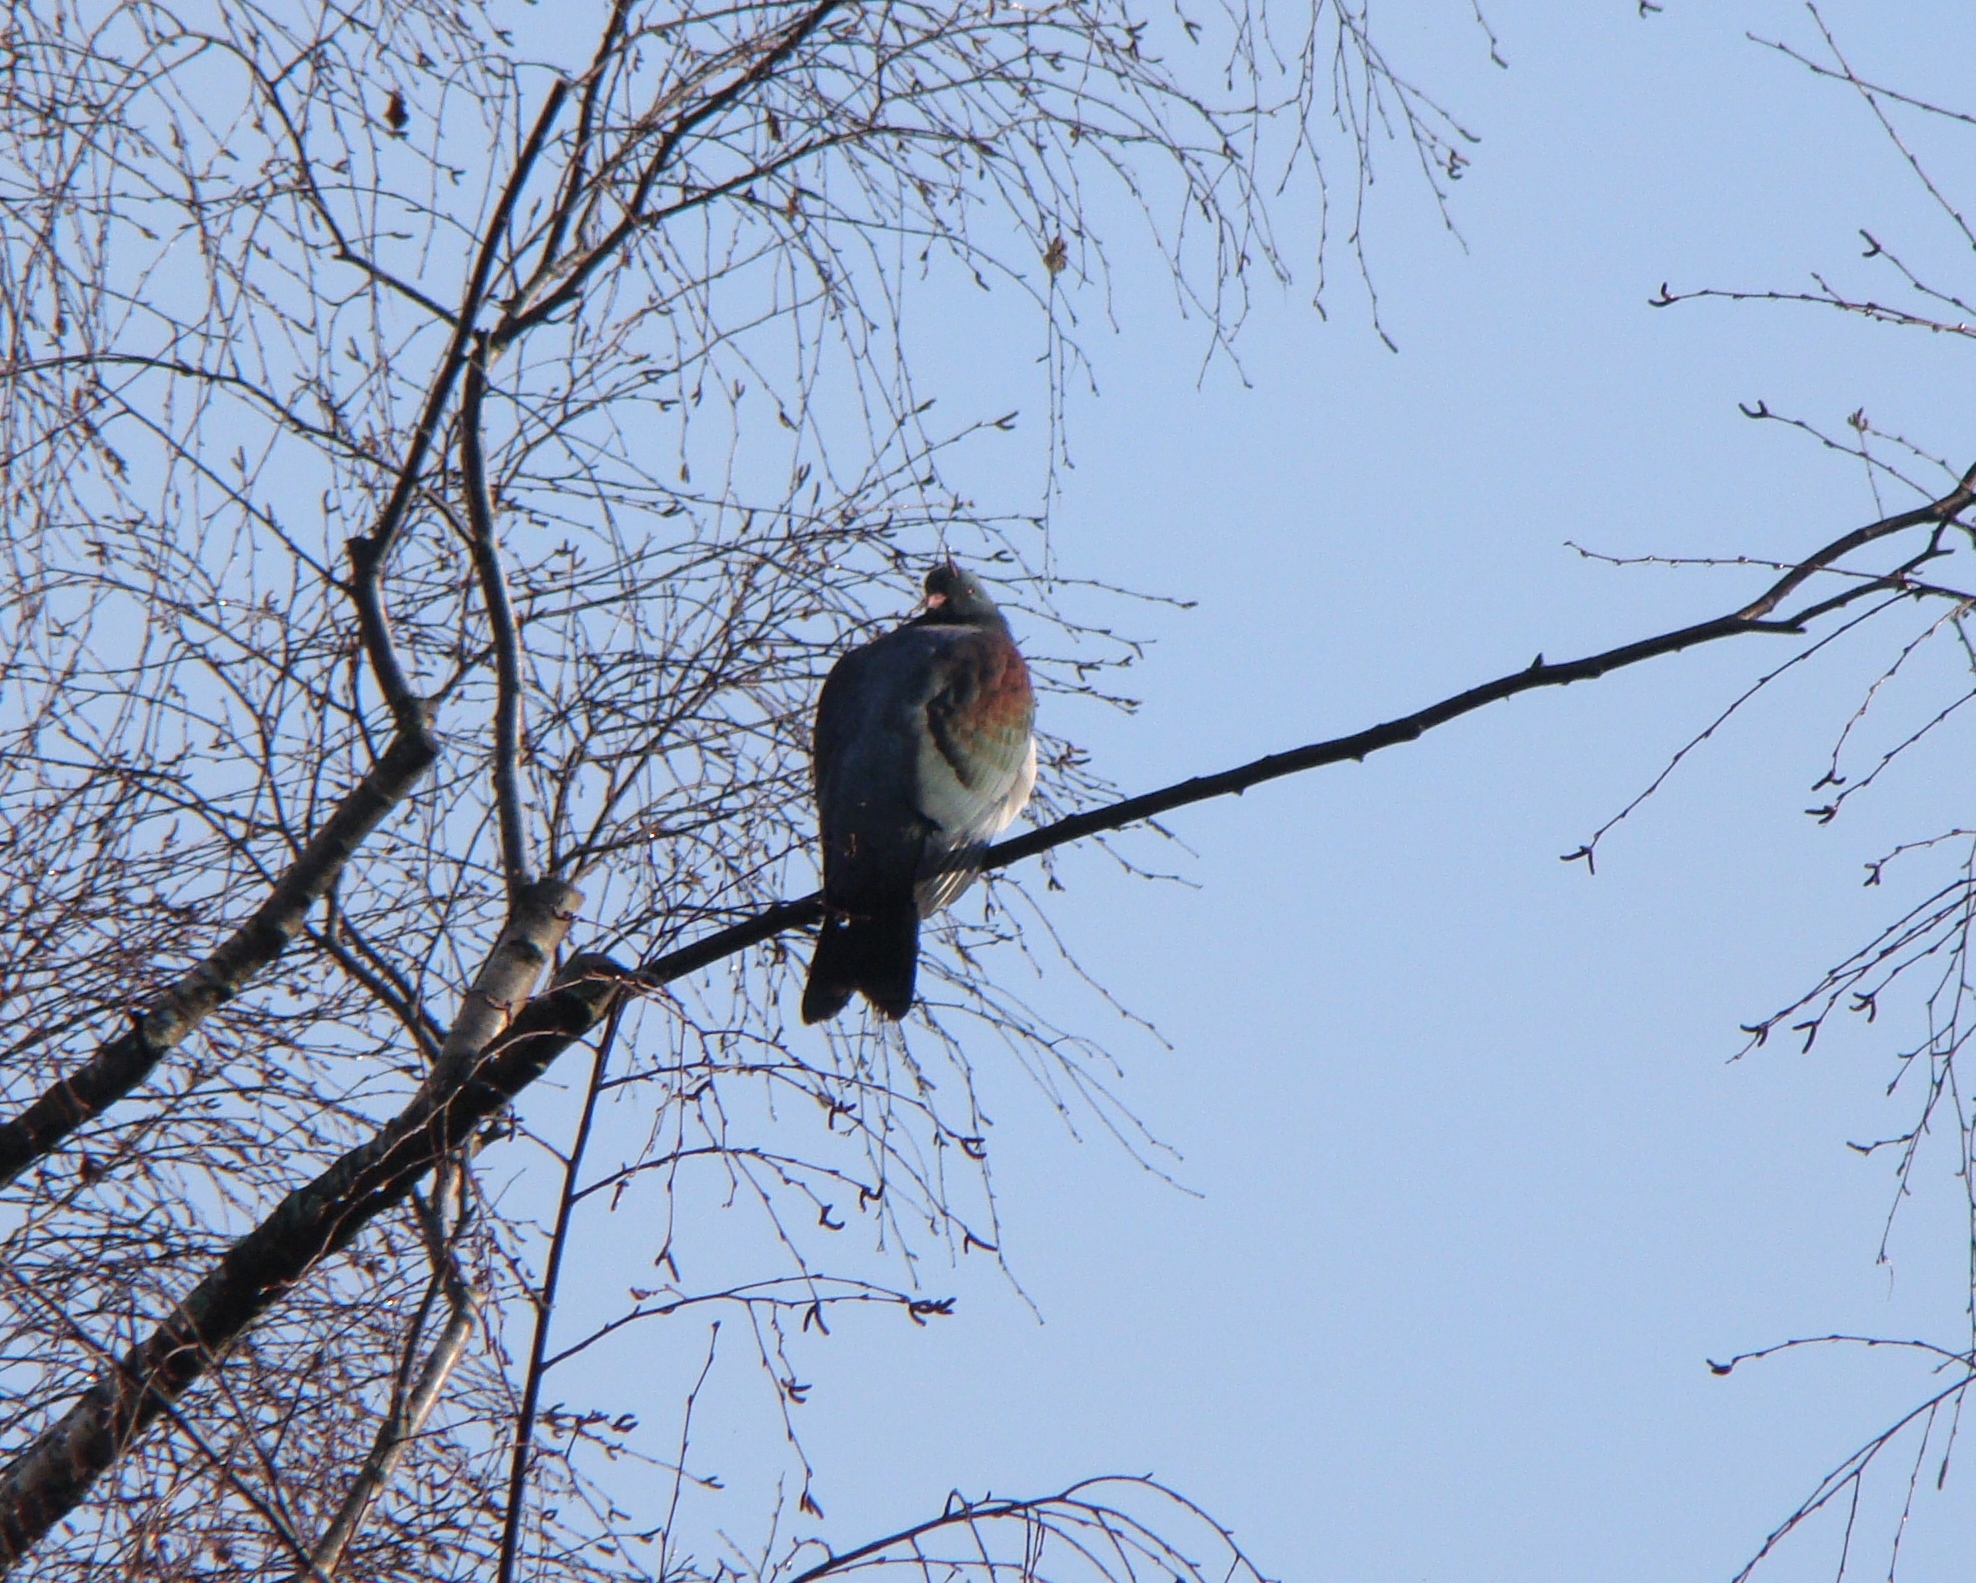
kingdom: Animalia
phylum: Chordata
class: Aves
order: Columbiformes
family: Columbidae
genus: Hemiphaga
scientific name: Hemiphaga novaeseelandiae
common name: New zealand pigeon
